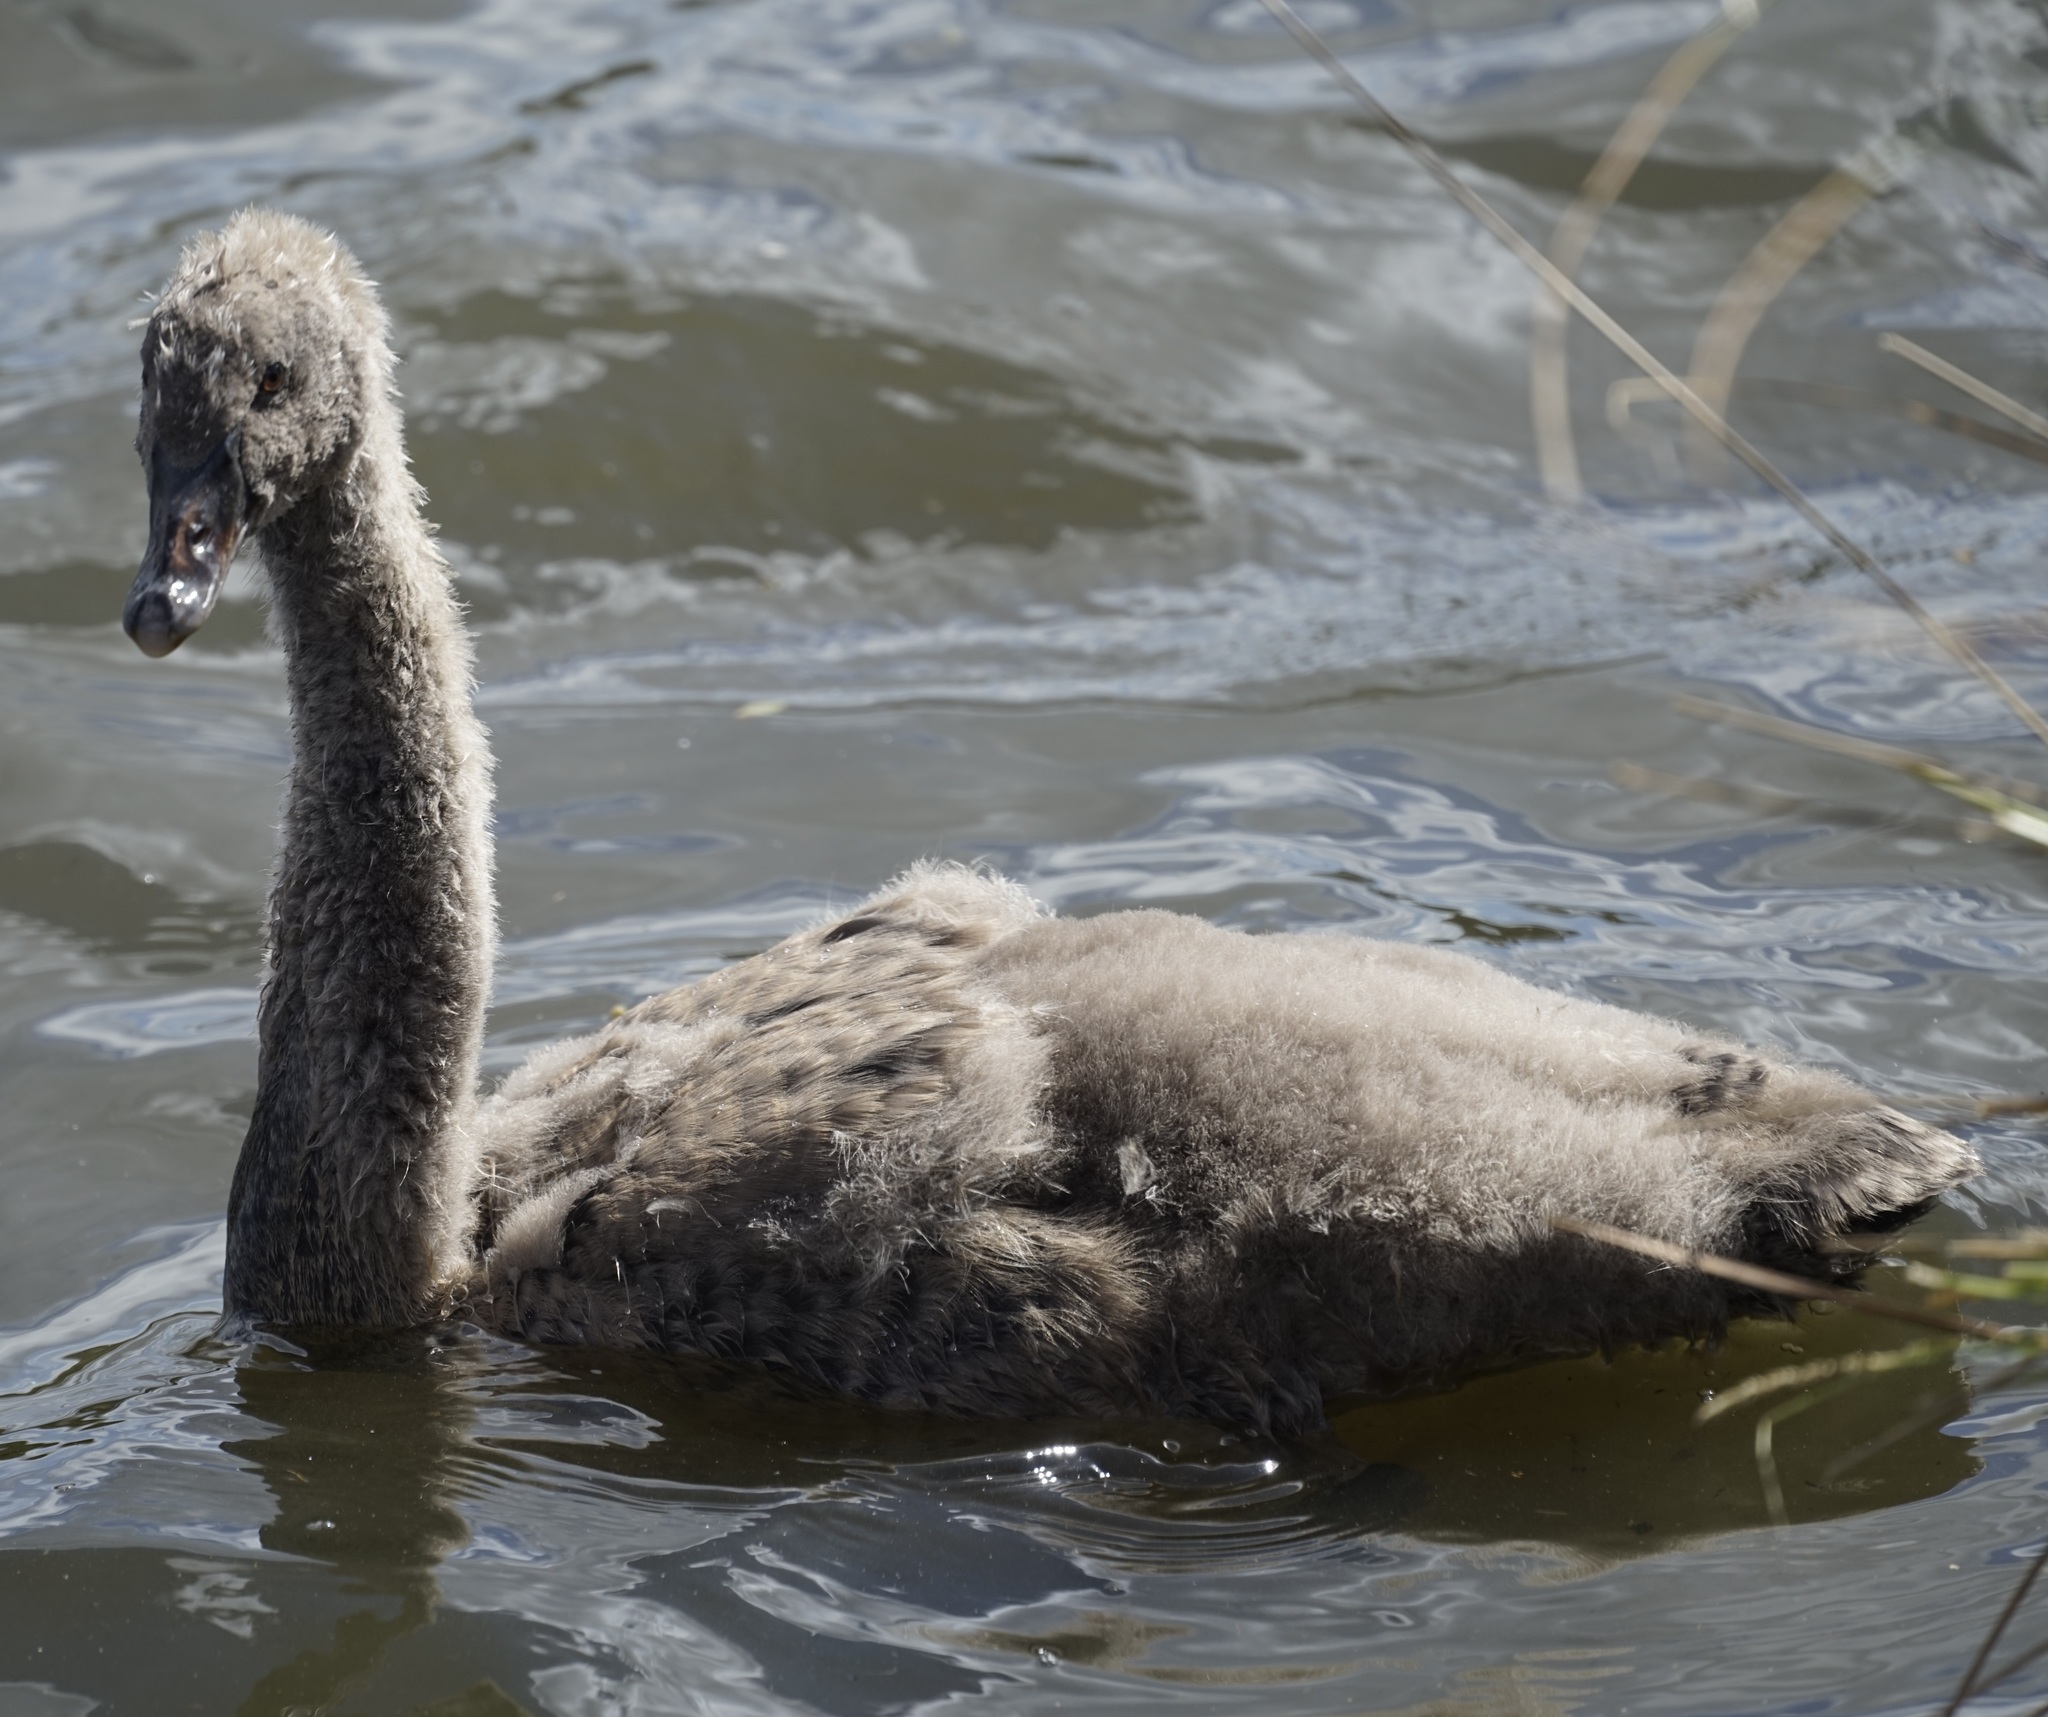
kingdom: Animalia
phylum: Chordata
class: Aves
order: Anseriformes
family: Anatidae
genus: Cygnus
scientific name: Cygnus atratus
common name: Black swan
